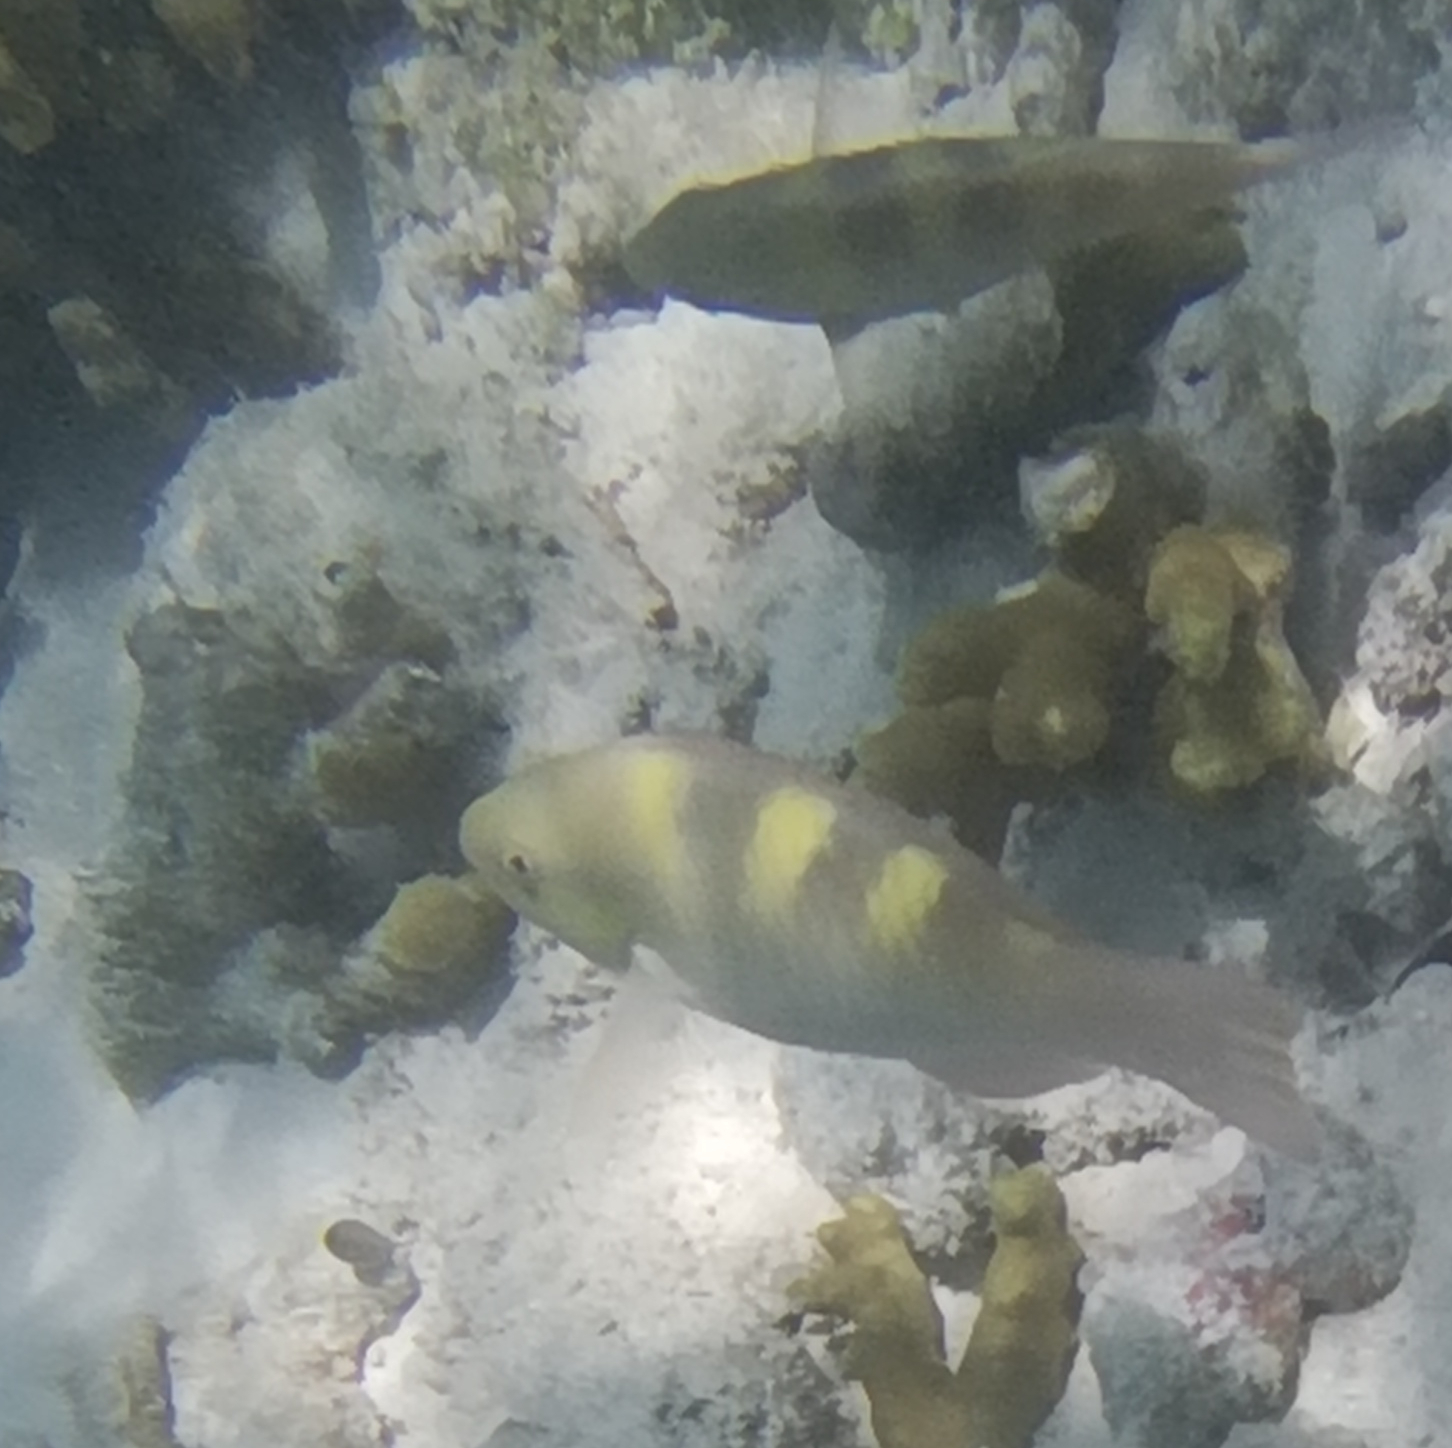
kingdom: Animalia
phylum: Chordata
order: Perciformes
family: Scaridae
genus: Scarus
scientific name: Scarus scaber
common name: Dusky-capped parrotfish
